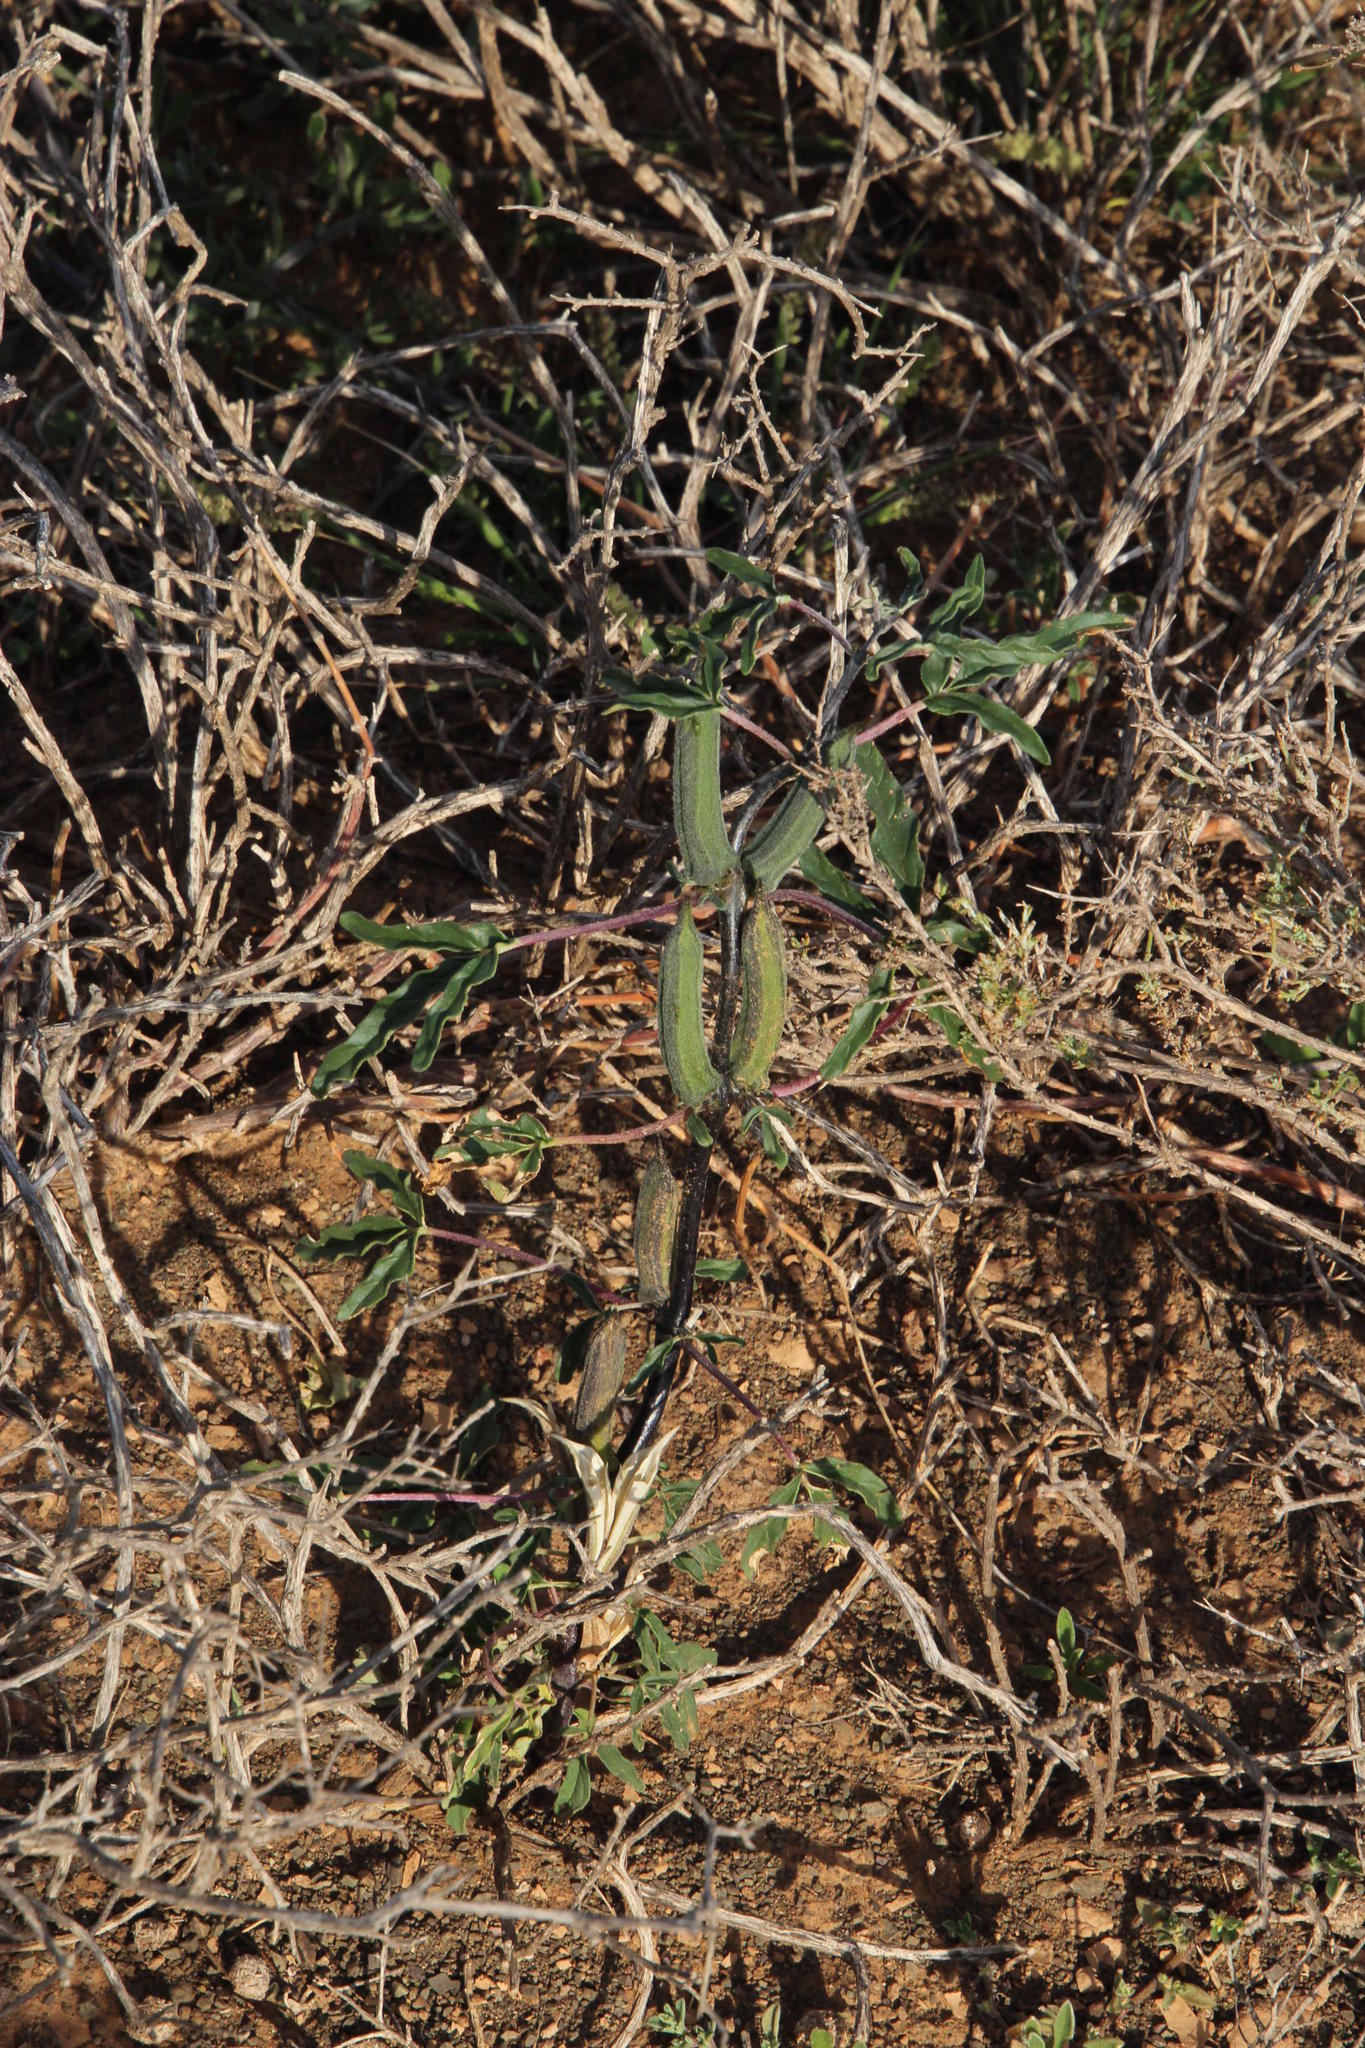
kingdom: Plantae
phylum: Tracheophyta
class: Magnoliopsida
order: Lamiales
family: Pedaliaceae
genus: Sesamum
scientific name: Sesamum capense
